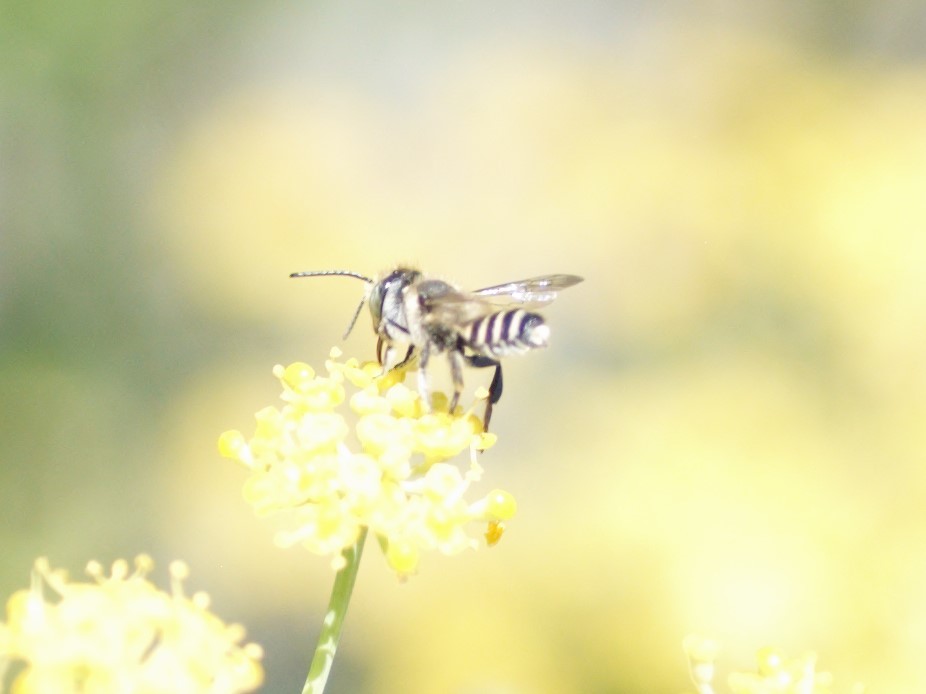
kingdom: Animalia
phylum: Arthropoda
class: Insecta
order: Hymenoptera
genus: Eutricharaea
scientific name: Eutricharaea
